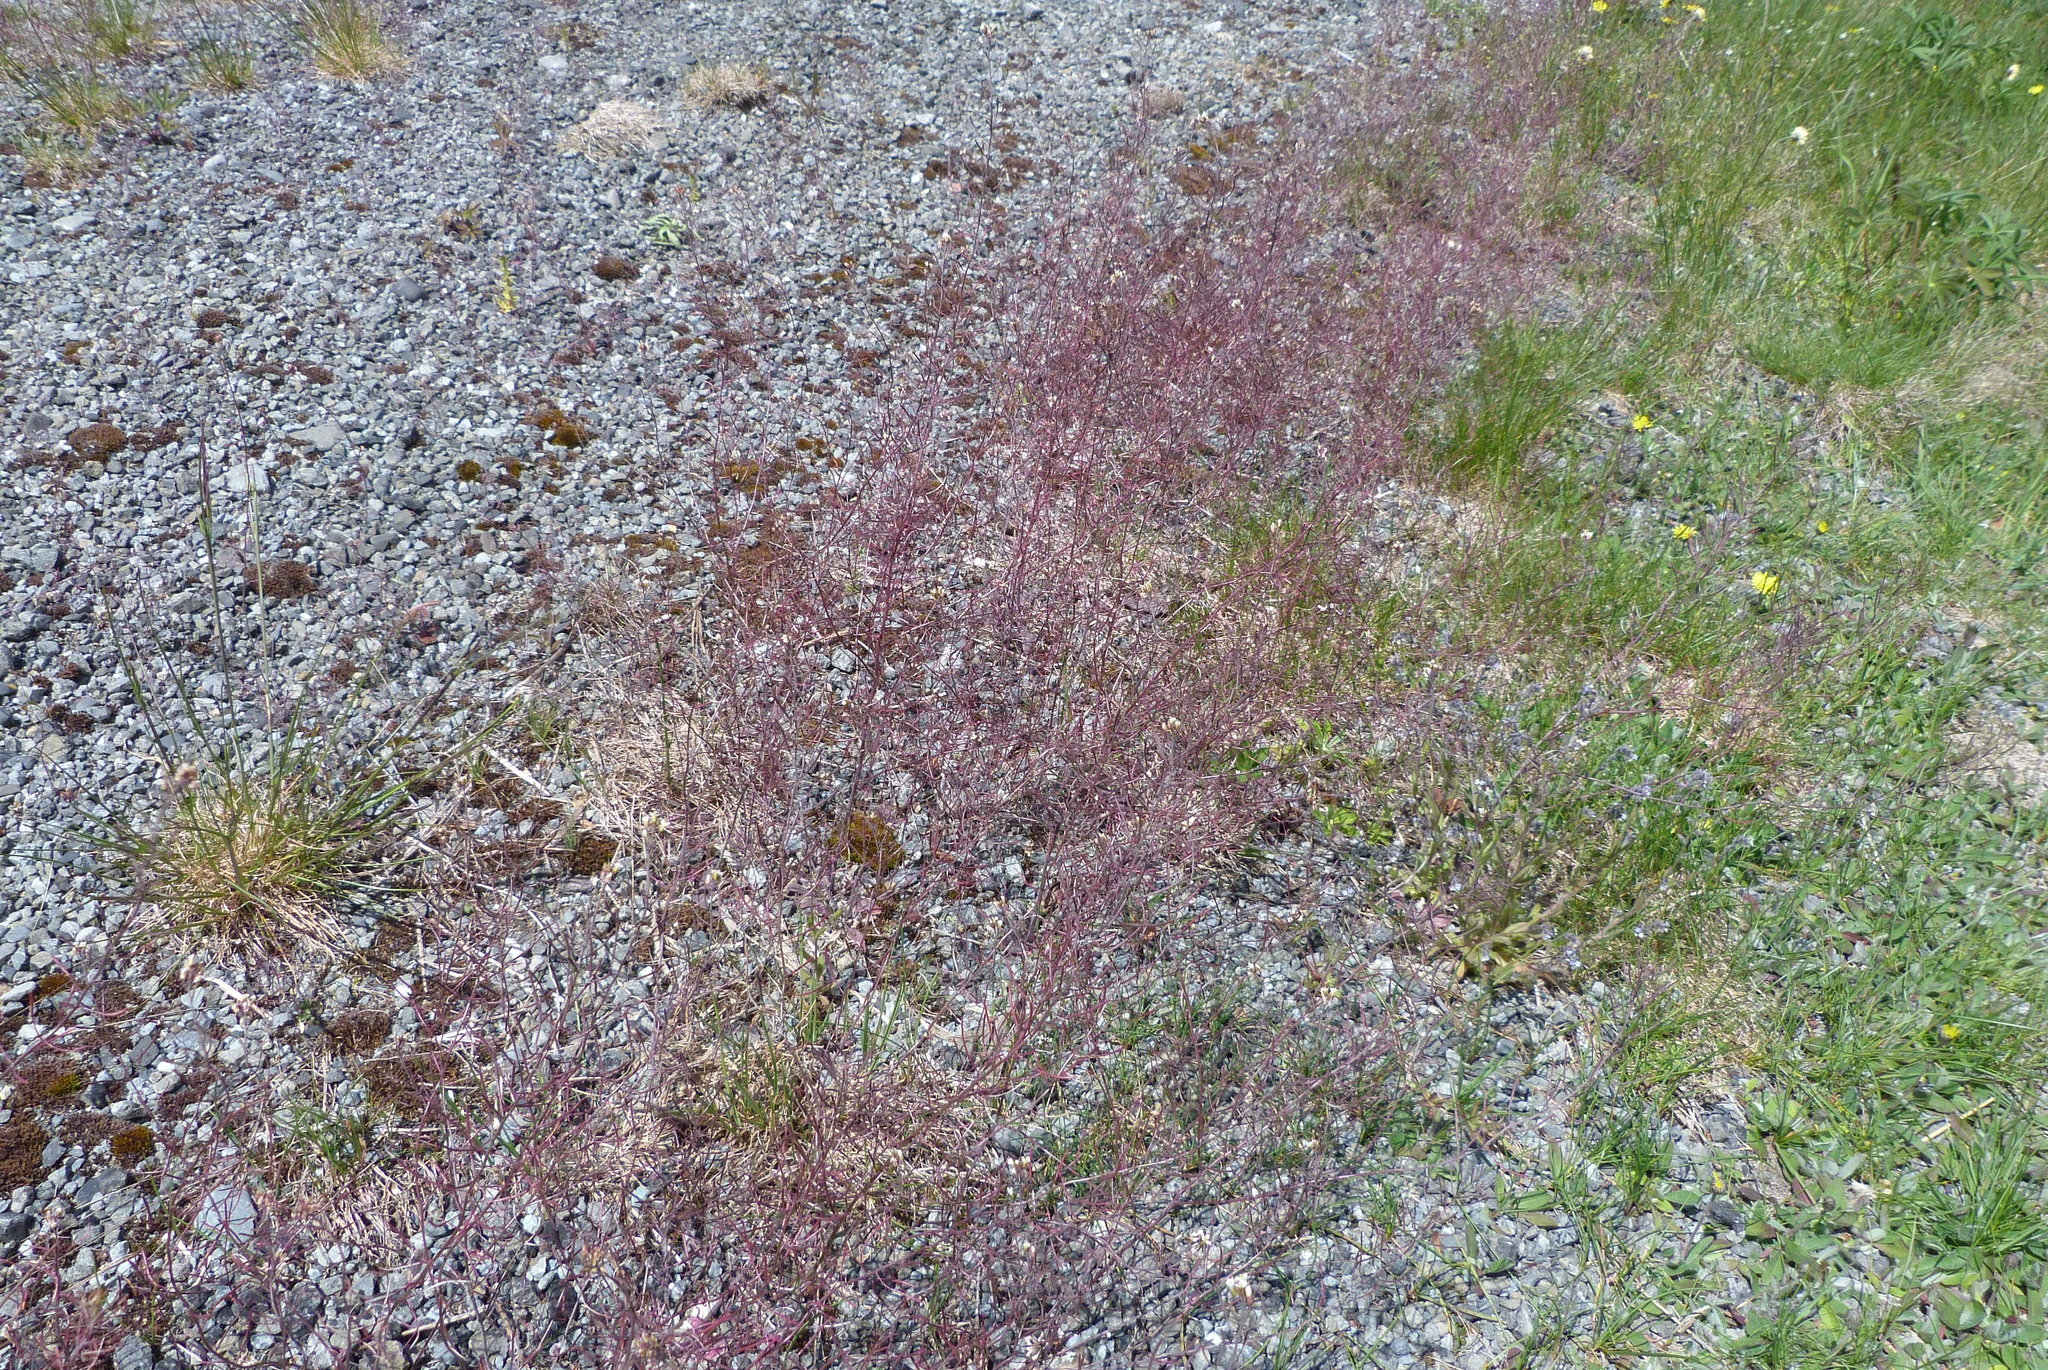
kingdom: Plantae
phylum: Tracheophyta
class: Magnoliopsida
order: Brassicales
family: Brassicaceae
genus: Arabidopsis
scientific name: Arabidopsis thaliana
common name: Thale cress
